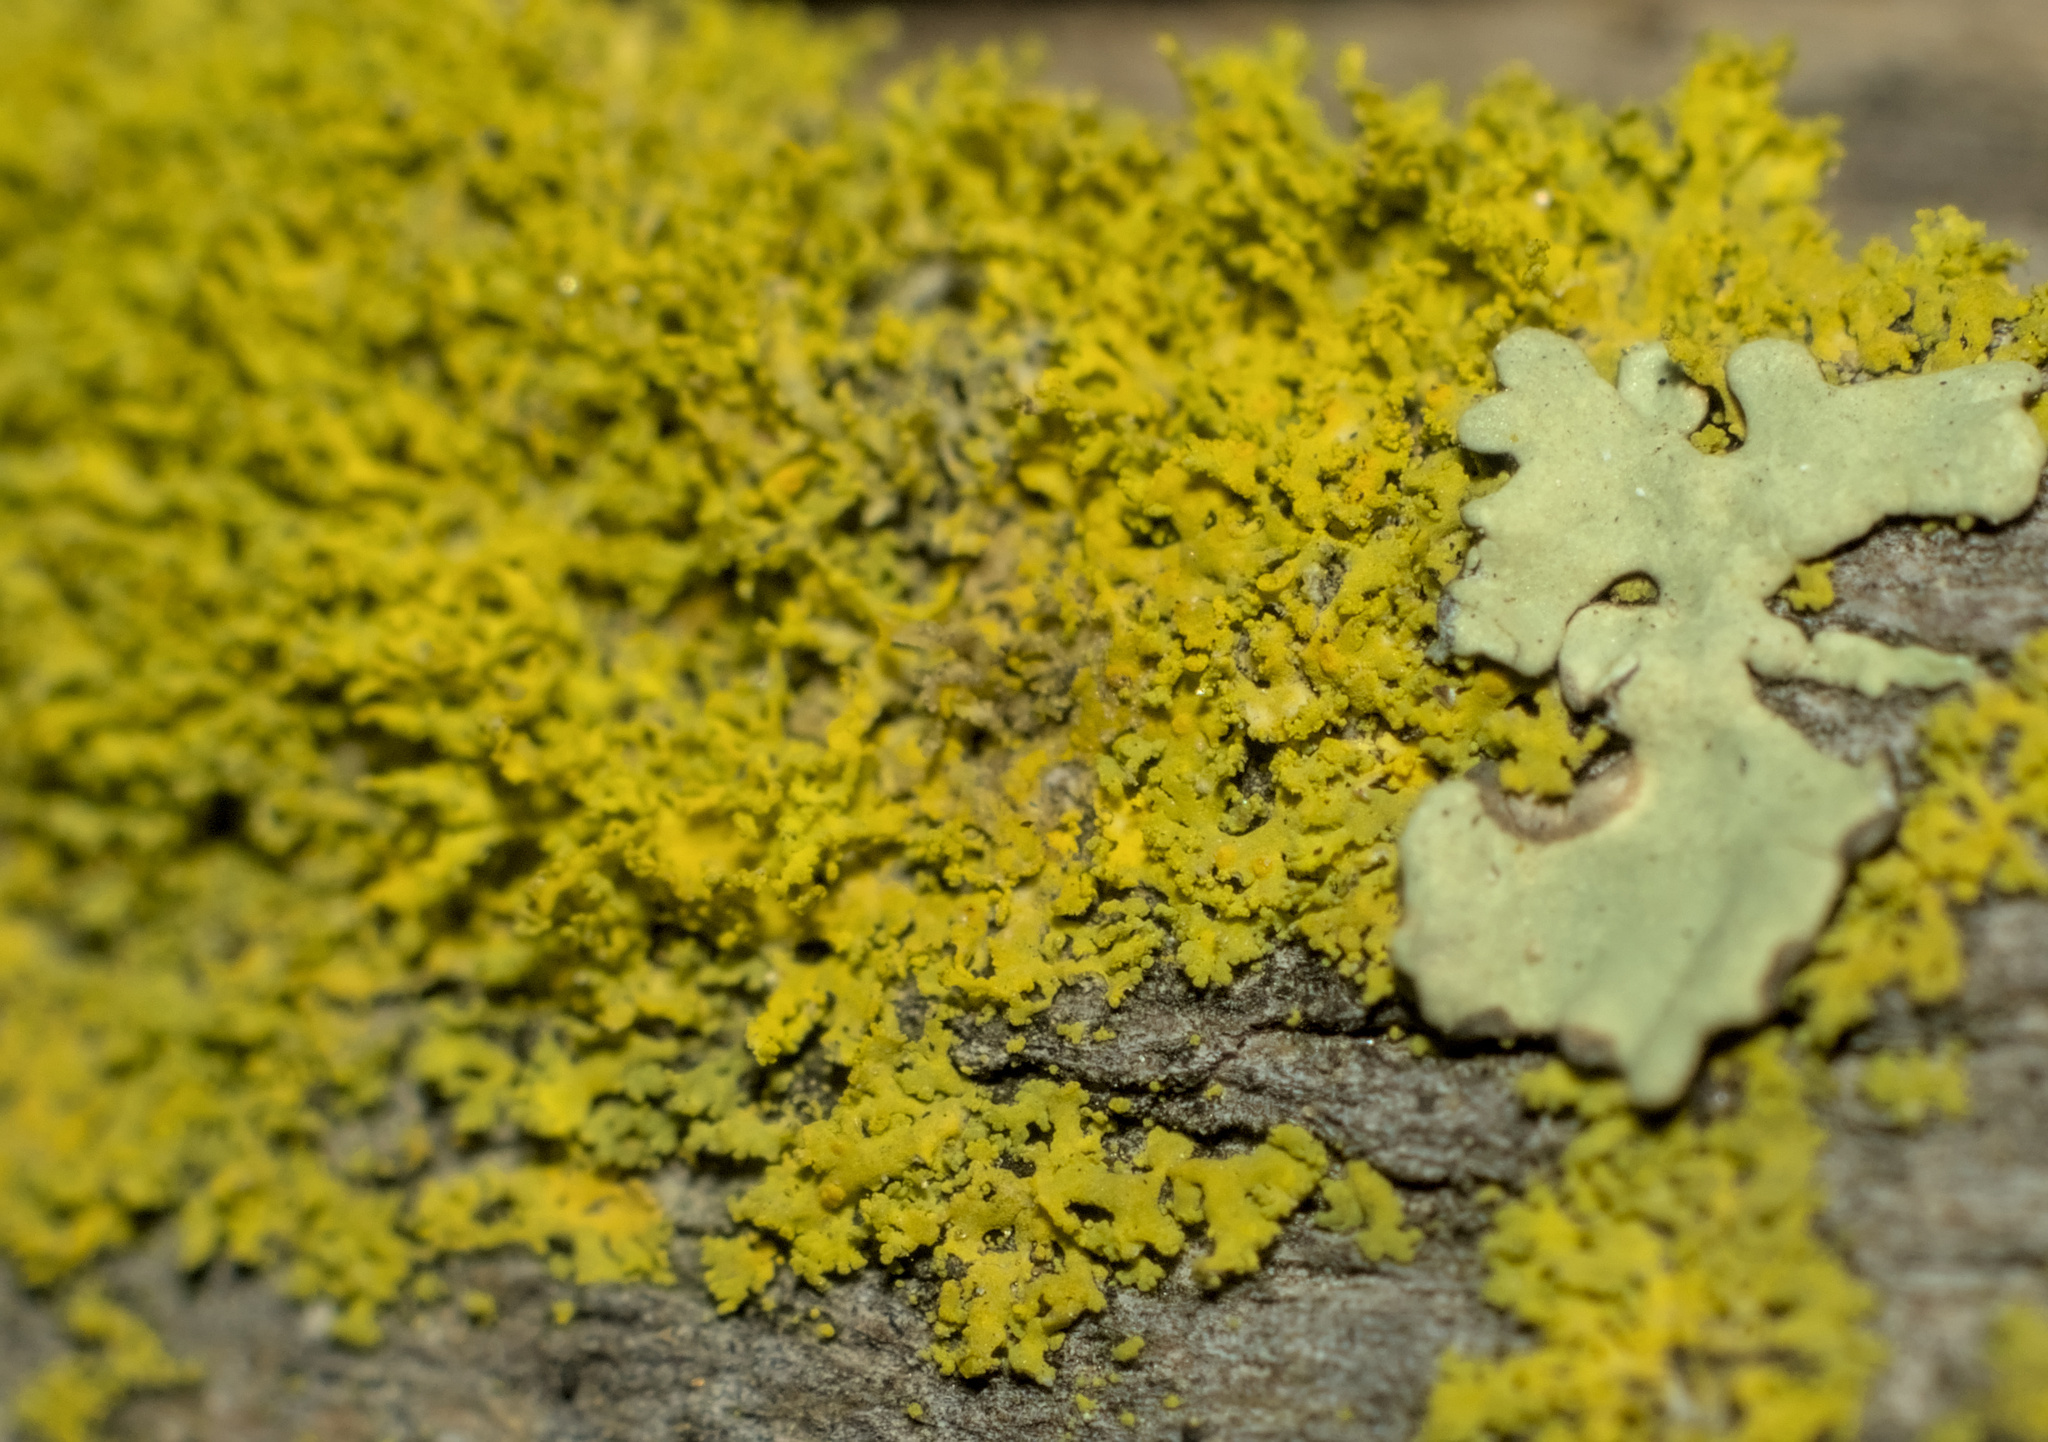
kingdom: Fungi
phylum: Ascomycota
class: Candelariomycetes
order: Candelariales
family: Candelariaceae
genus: Candelaria
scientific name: Candelaria pacifica
